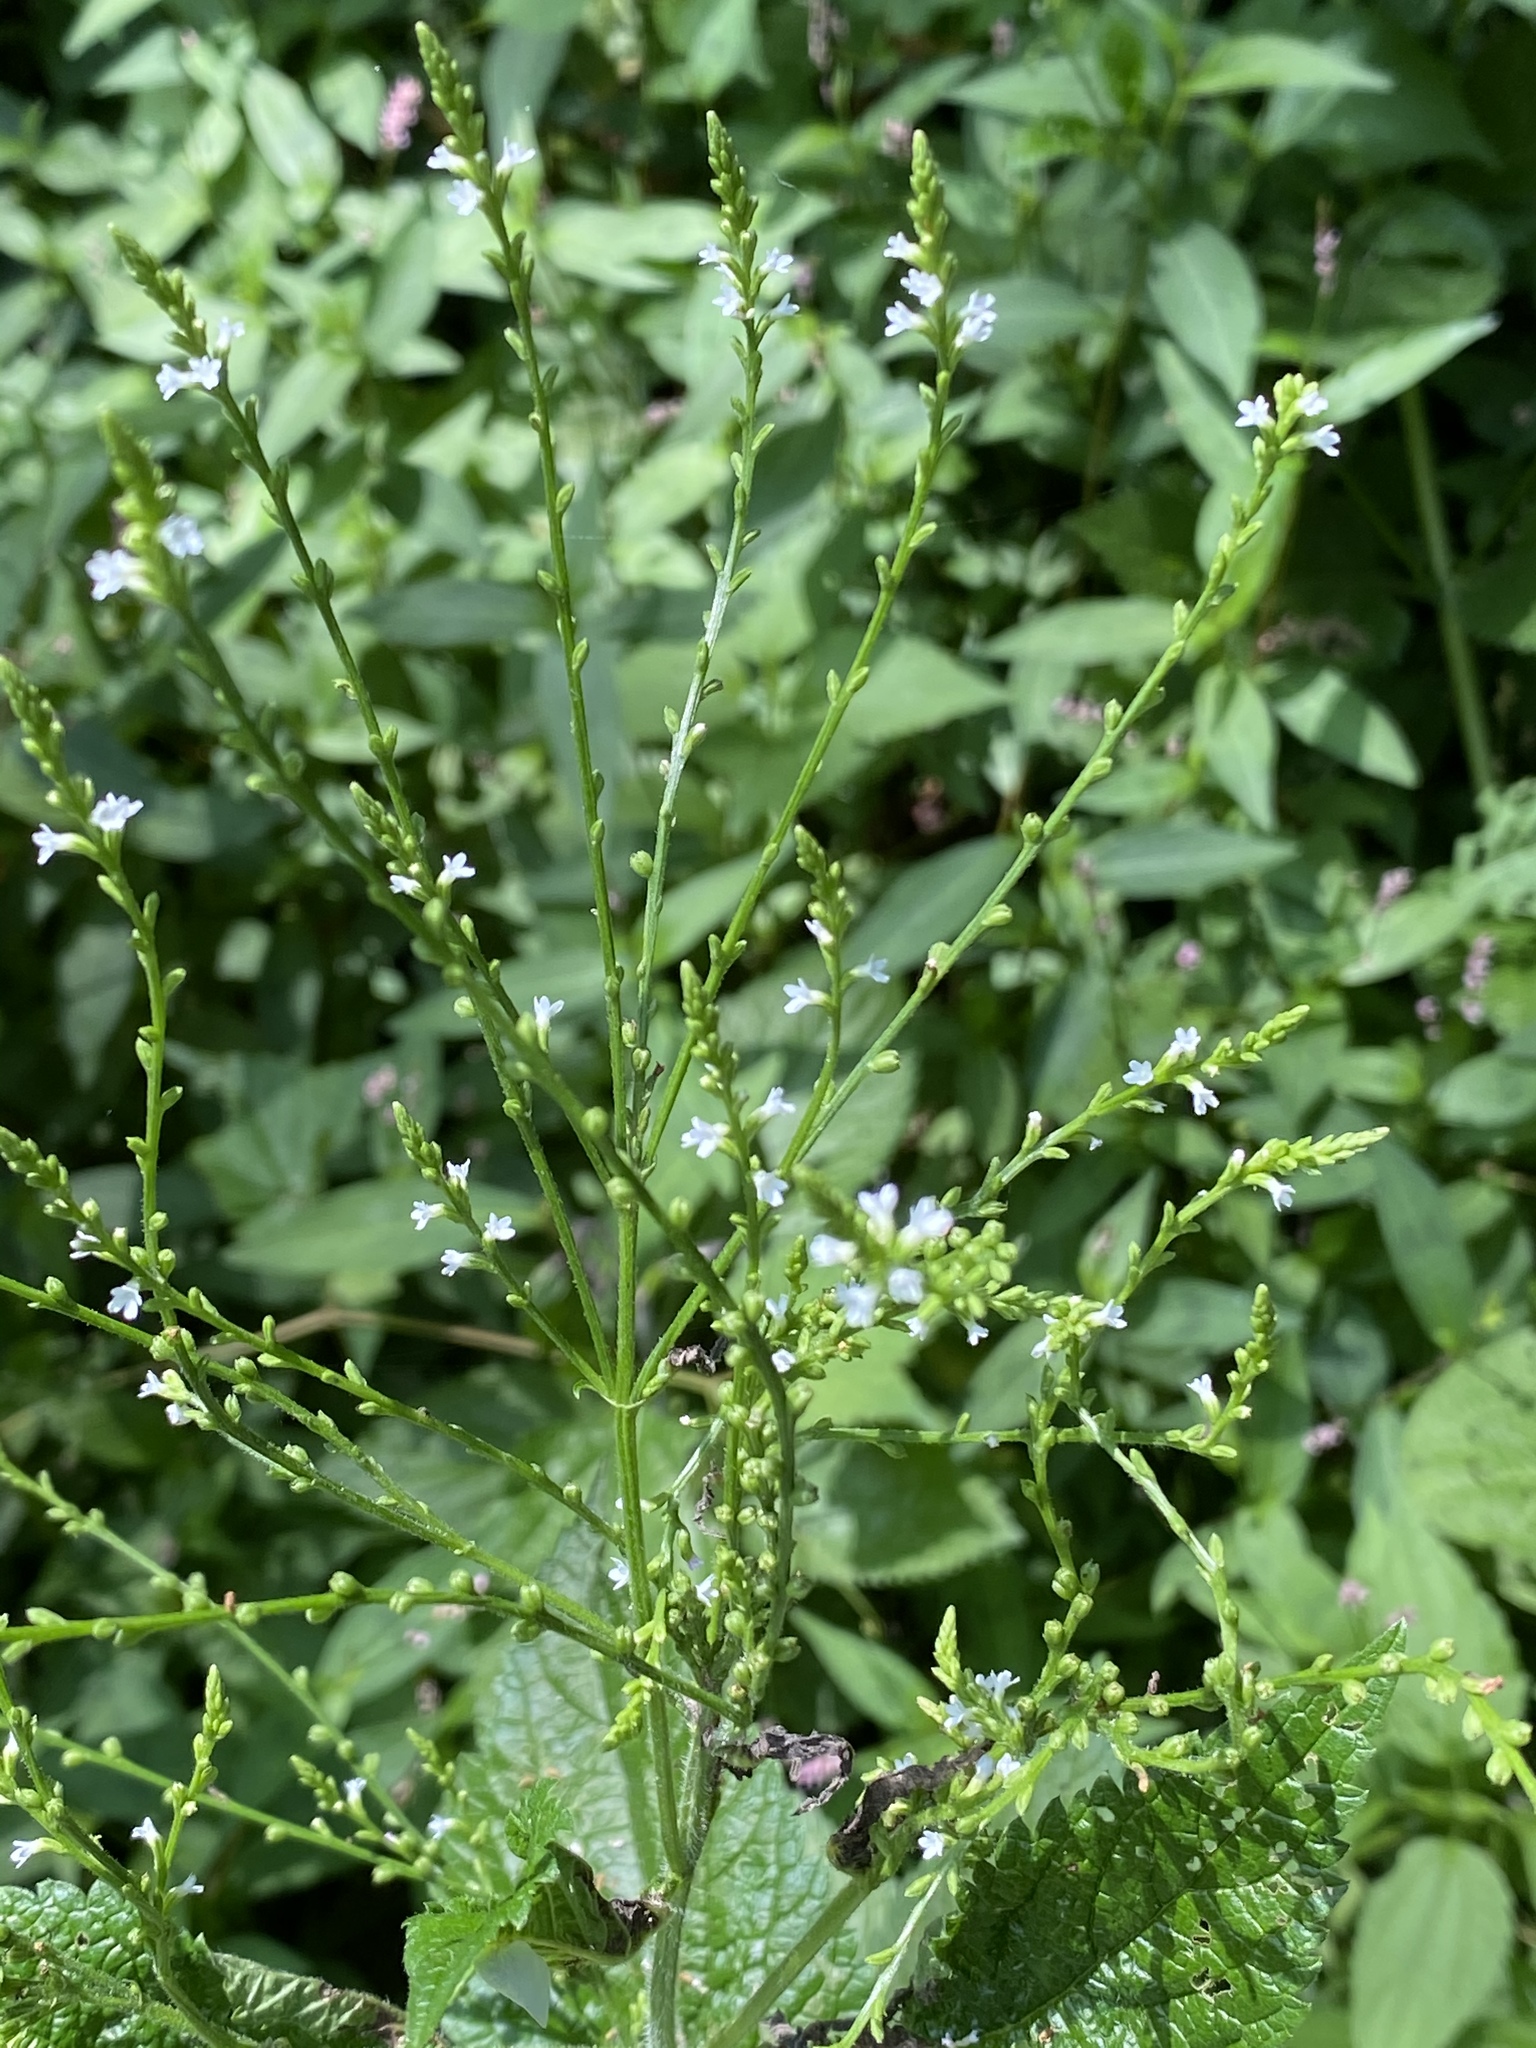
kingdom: Plantae
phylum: Tracheophyta
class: Magnoliopsida
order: Lamiales
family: Verbenaceae
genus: Verbena
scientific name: Verbena urticifolia
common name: Nettle-leaved vervain
